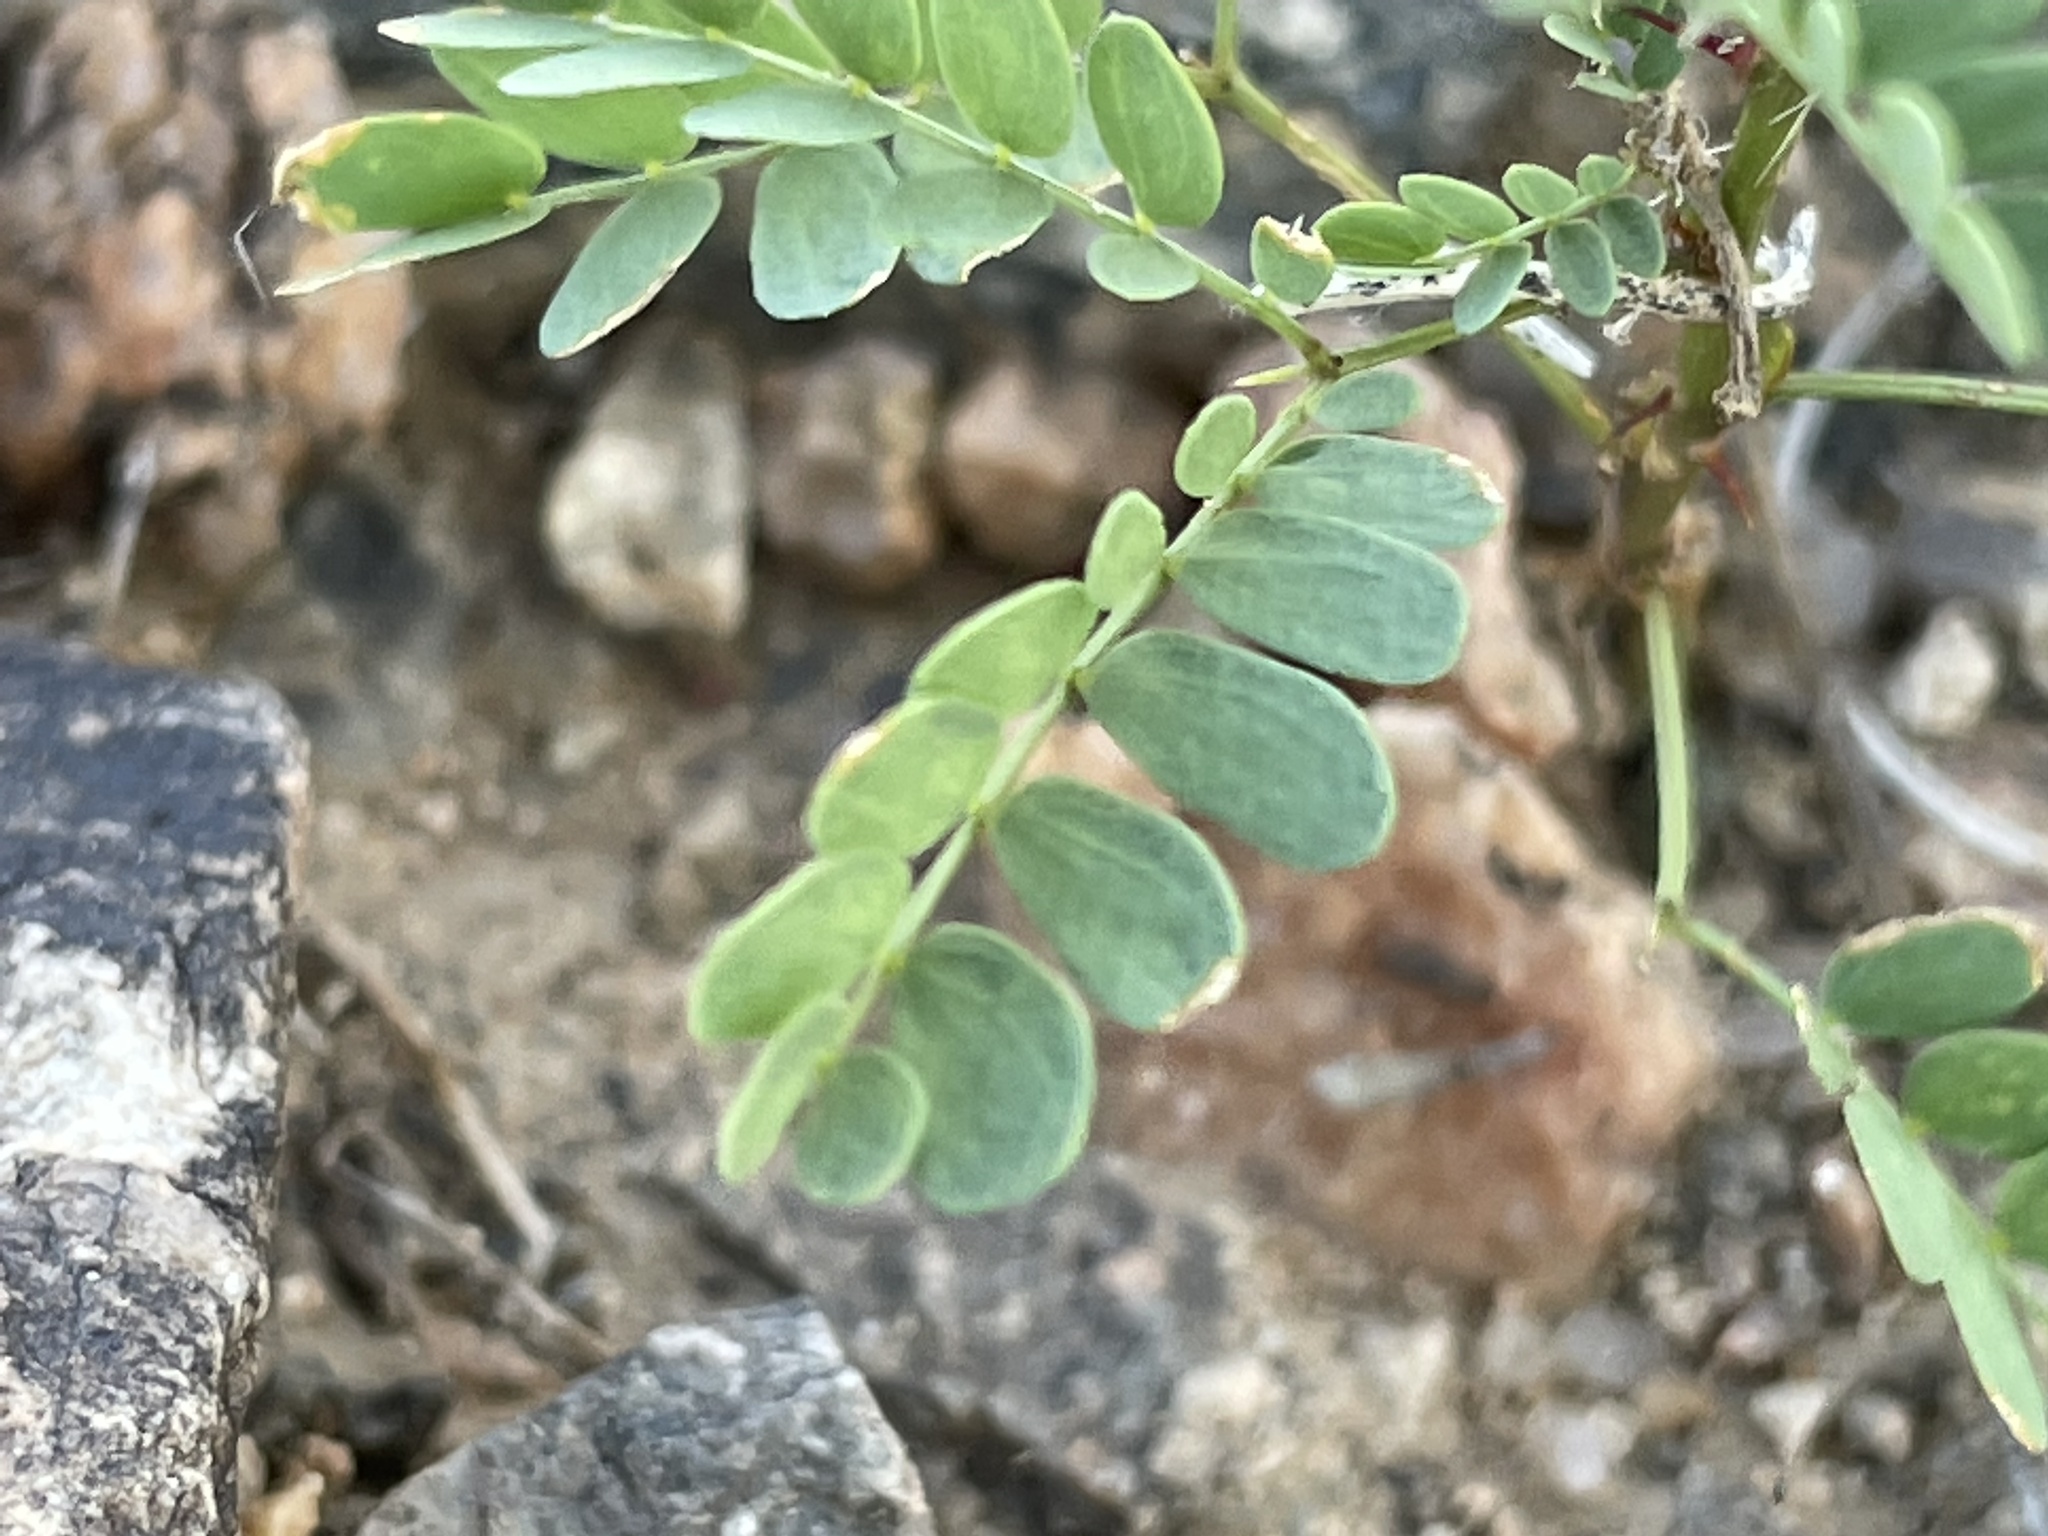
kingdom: Plantae
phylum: Tracheophyta
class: Magnoliopsida
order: Fabales
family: Fabaceae
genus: Senegalia
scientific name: Senegalia greggii
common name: Texas-mimosa
